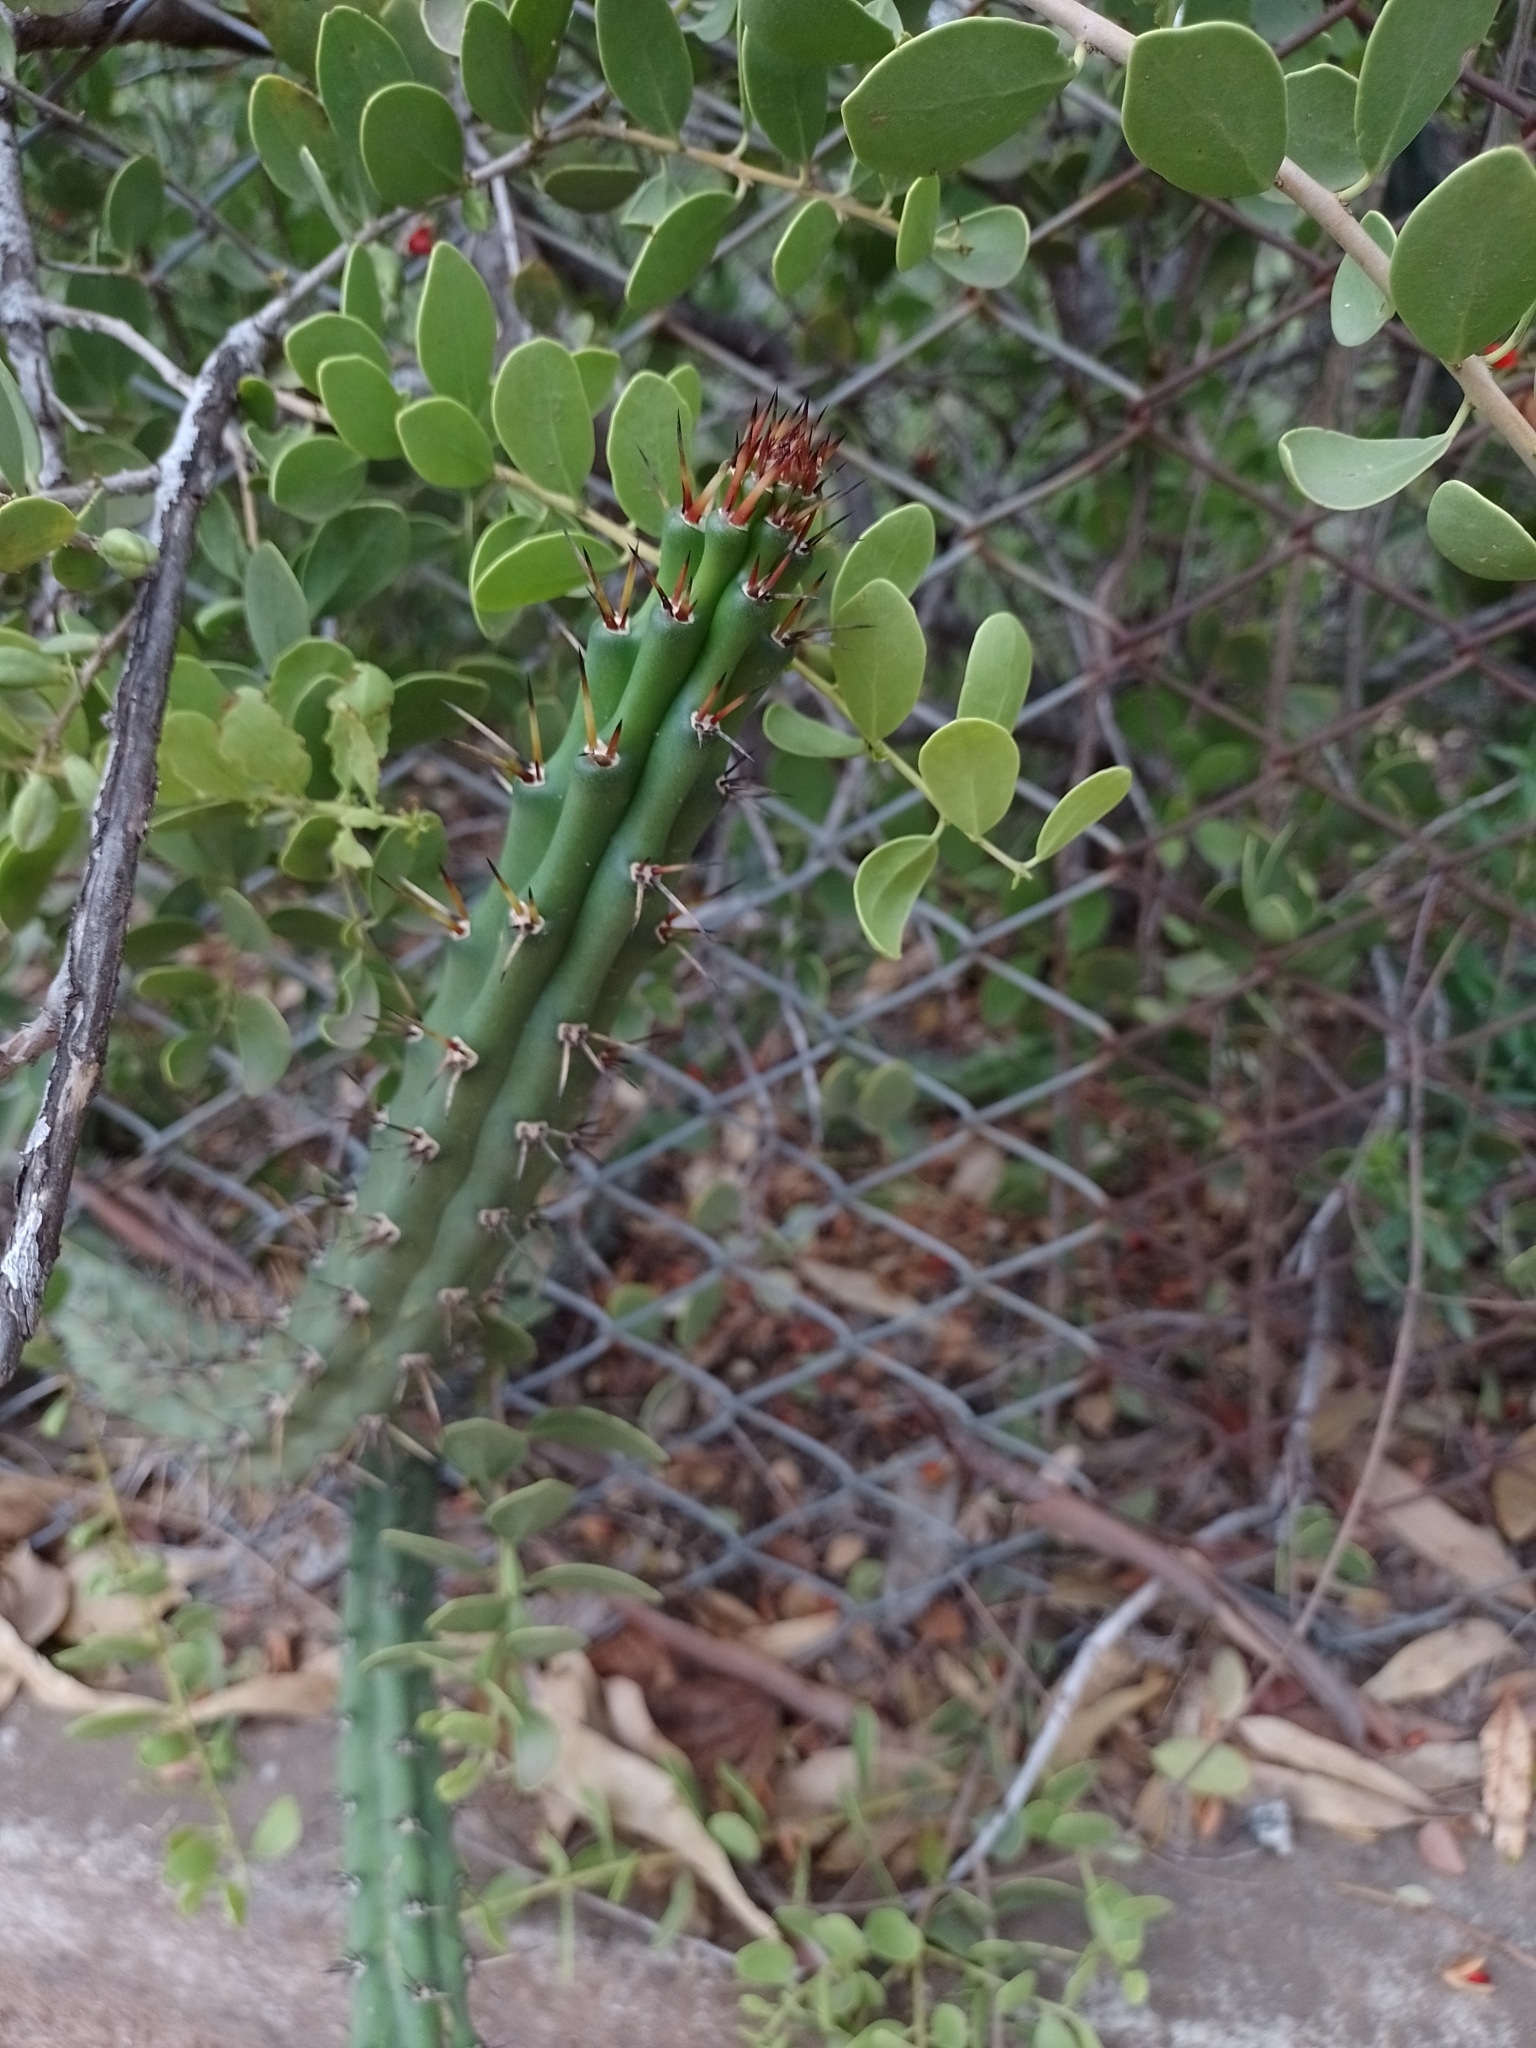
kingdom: Plantae
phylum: Tracheophyta
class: Magnoliopsida
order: Caryophyllales
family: Cactaceae
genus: Harrisia
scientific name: Harrisia pomanensis
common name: Midnight-lady
